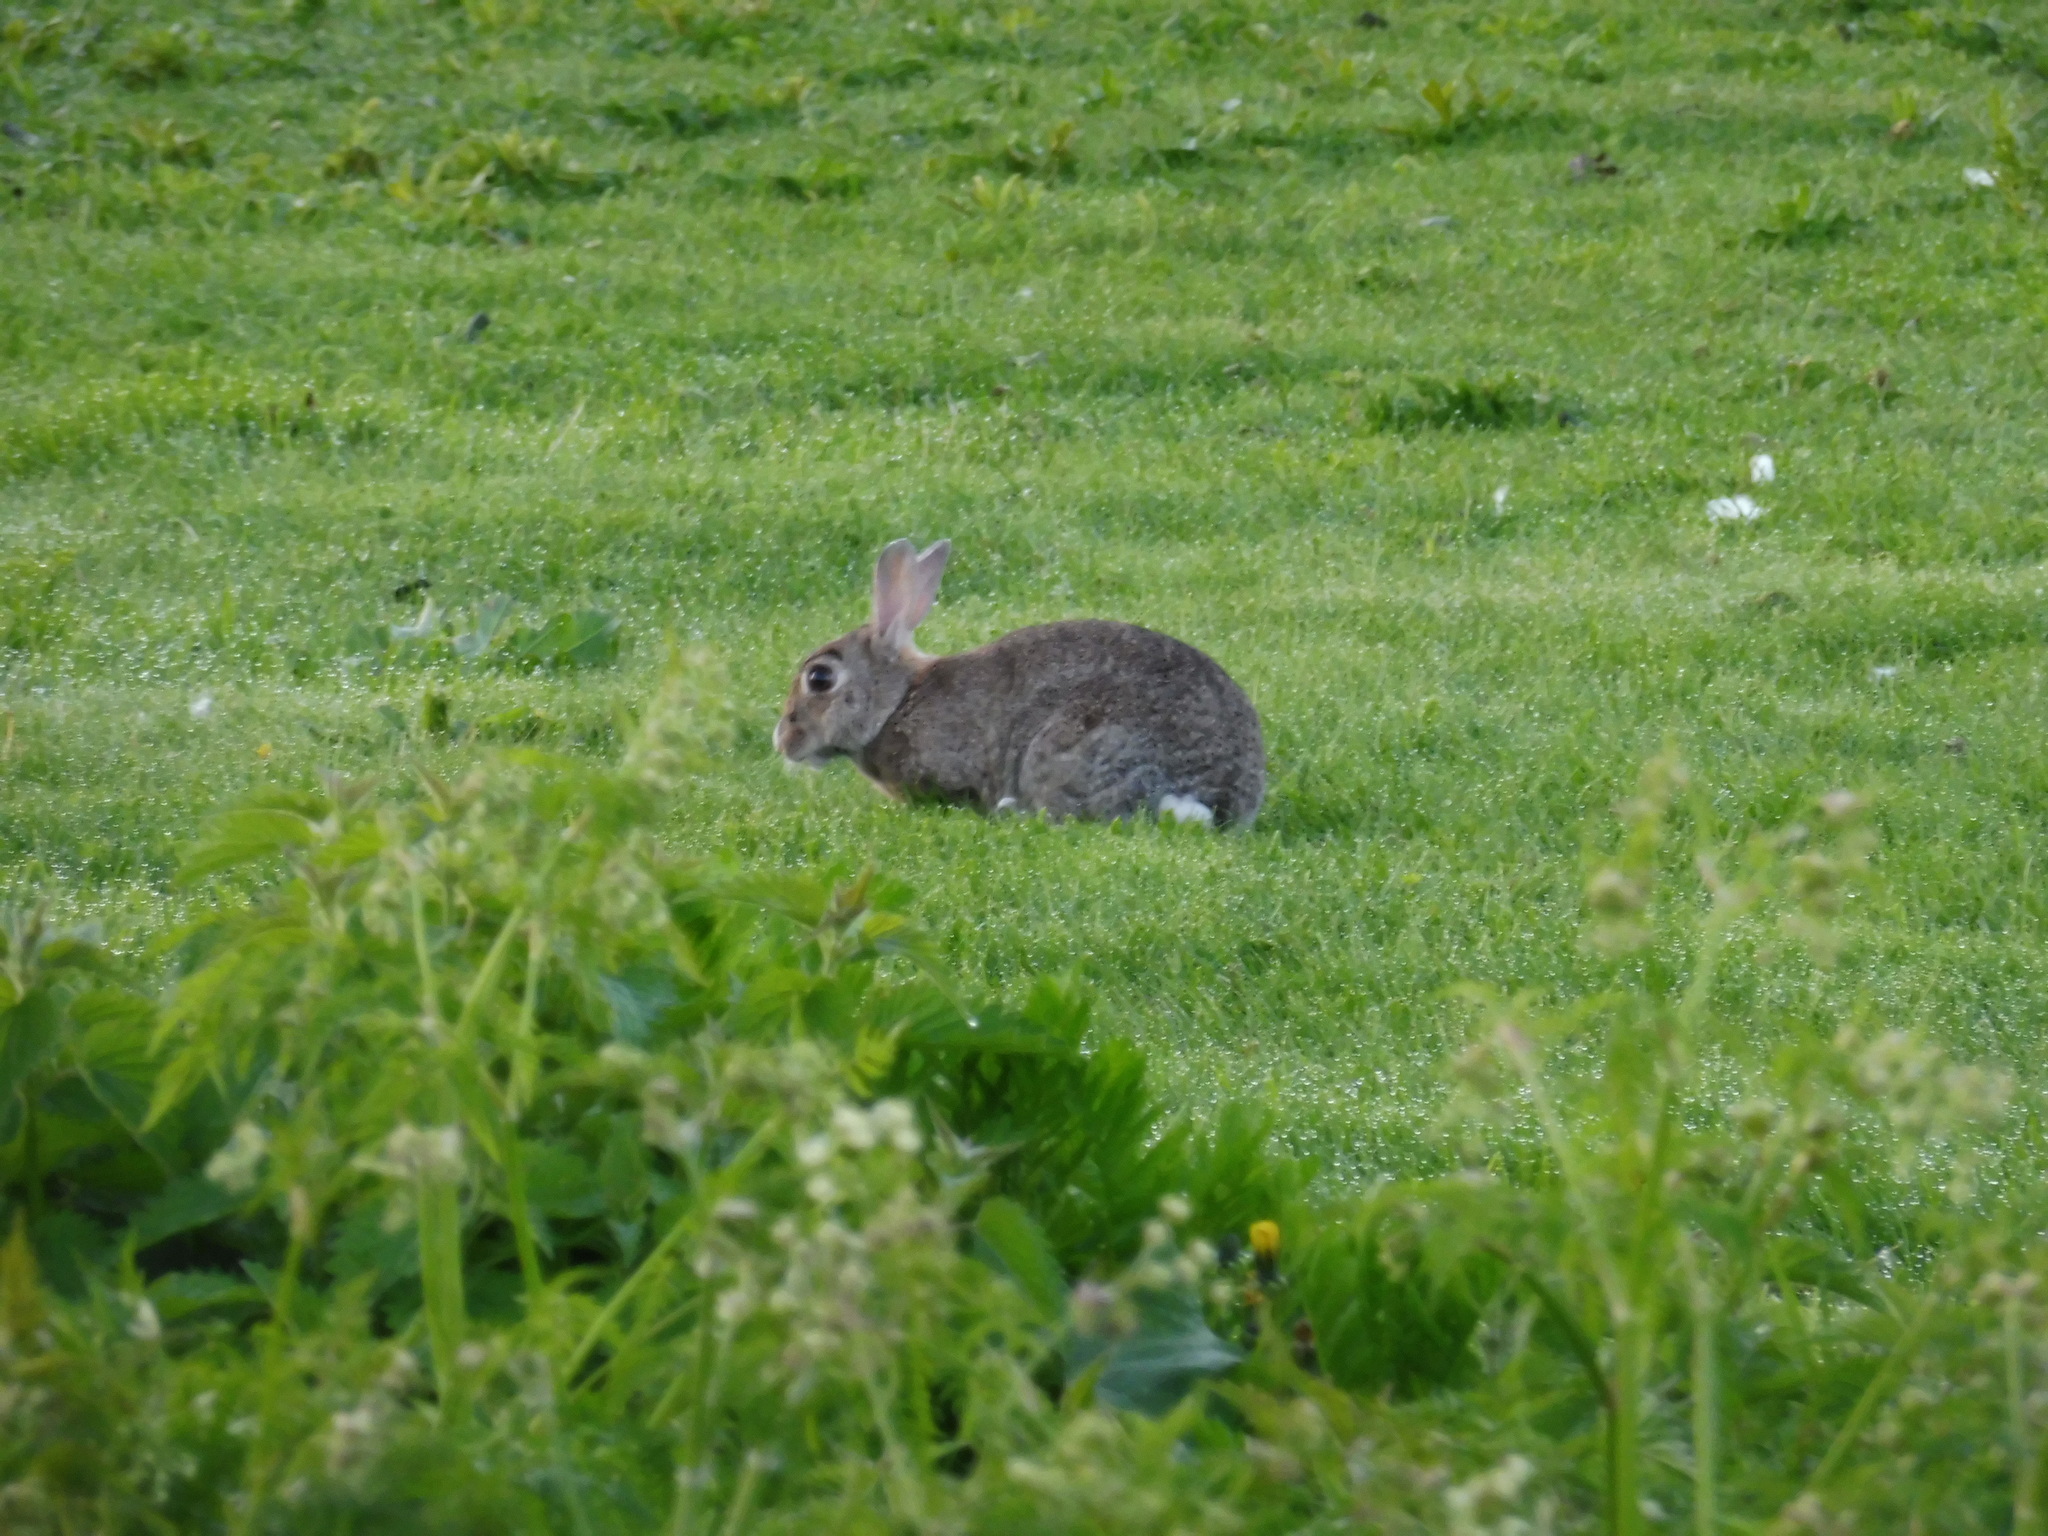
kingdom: Animalia
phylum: Chordata
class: Mammalia
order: Lagomorpha
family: Leporidae
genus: Oryctolagus
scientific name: Oryctolagus cuniculus
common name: European rabbit
